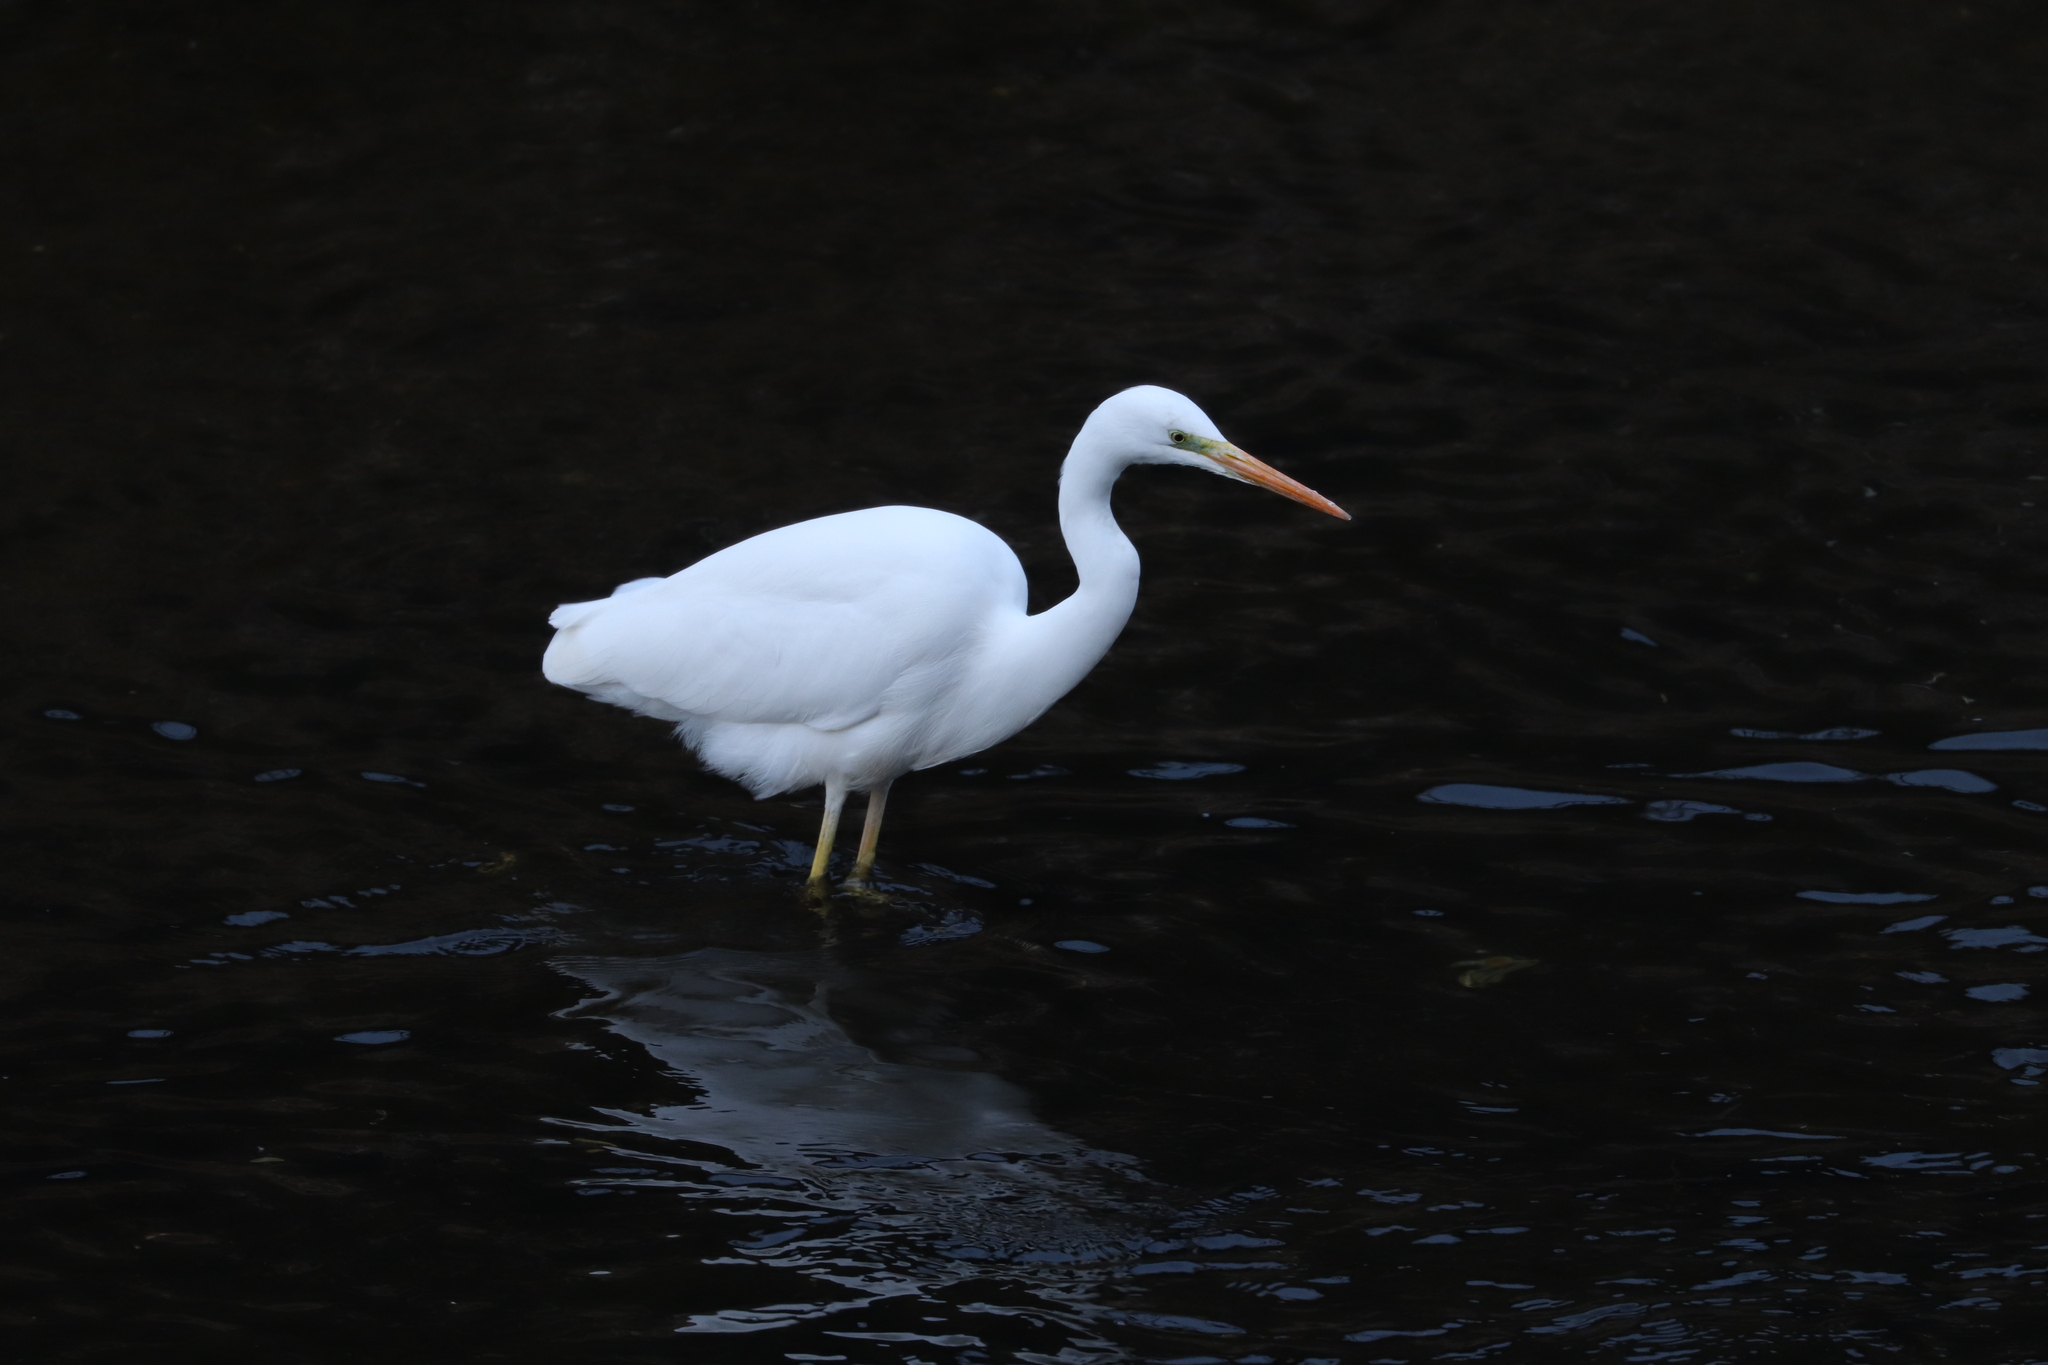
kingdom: Animalia
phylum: Chordata
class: Aves
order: Pelecaniformes
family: Ardeidae
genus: Ardea
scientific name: Ardea alba
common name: Great egret
